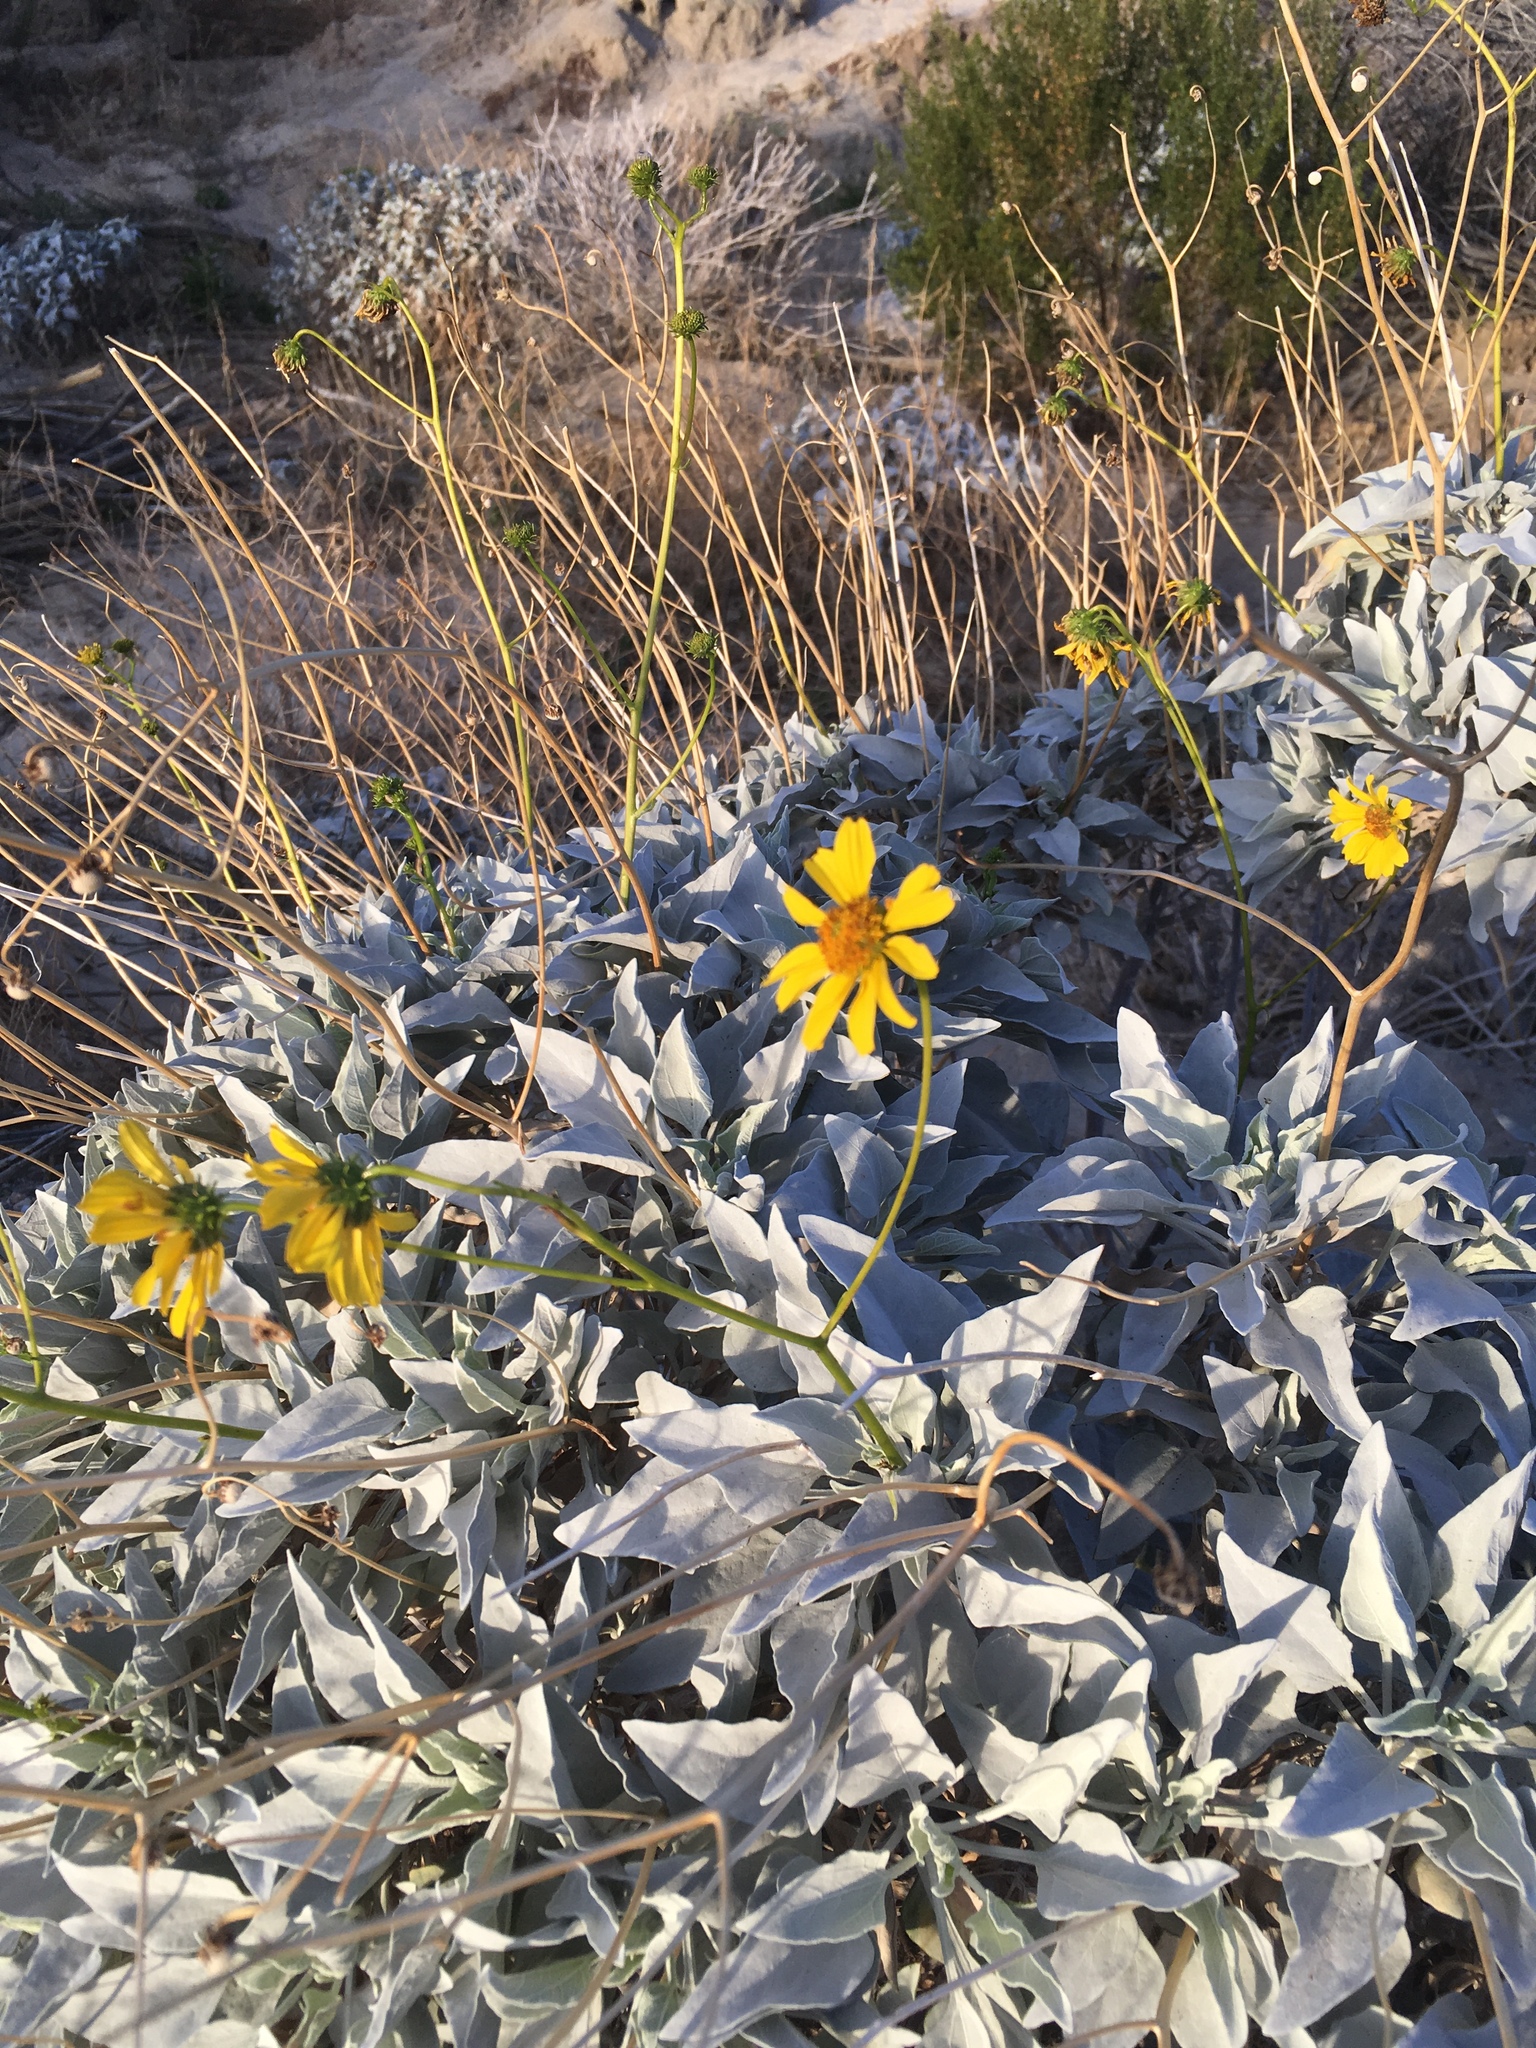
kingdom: Plantae
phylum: Tracheophyta
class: Magnoliopsida
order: Asterales
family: Asteraceae
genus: Encelia
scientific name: Encelia farinosa
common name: Brittlebush
